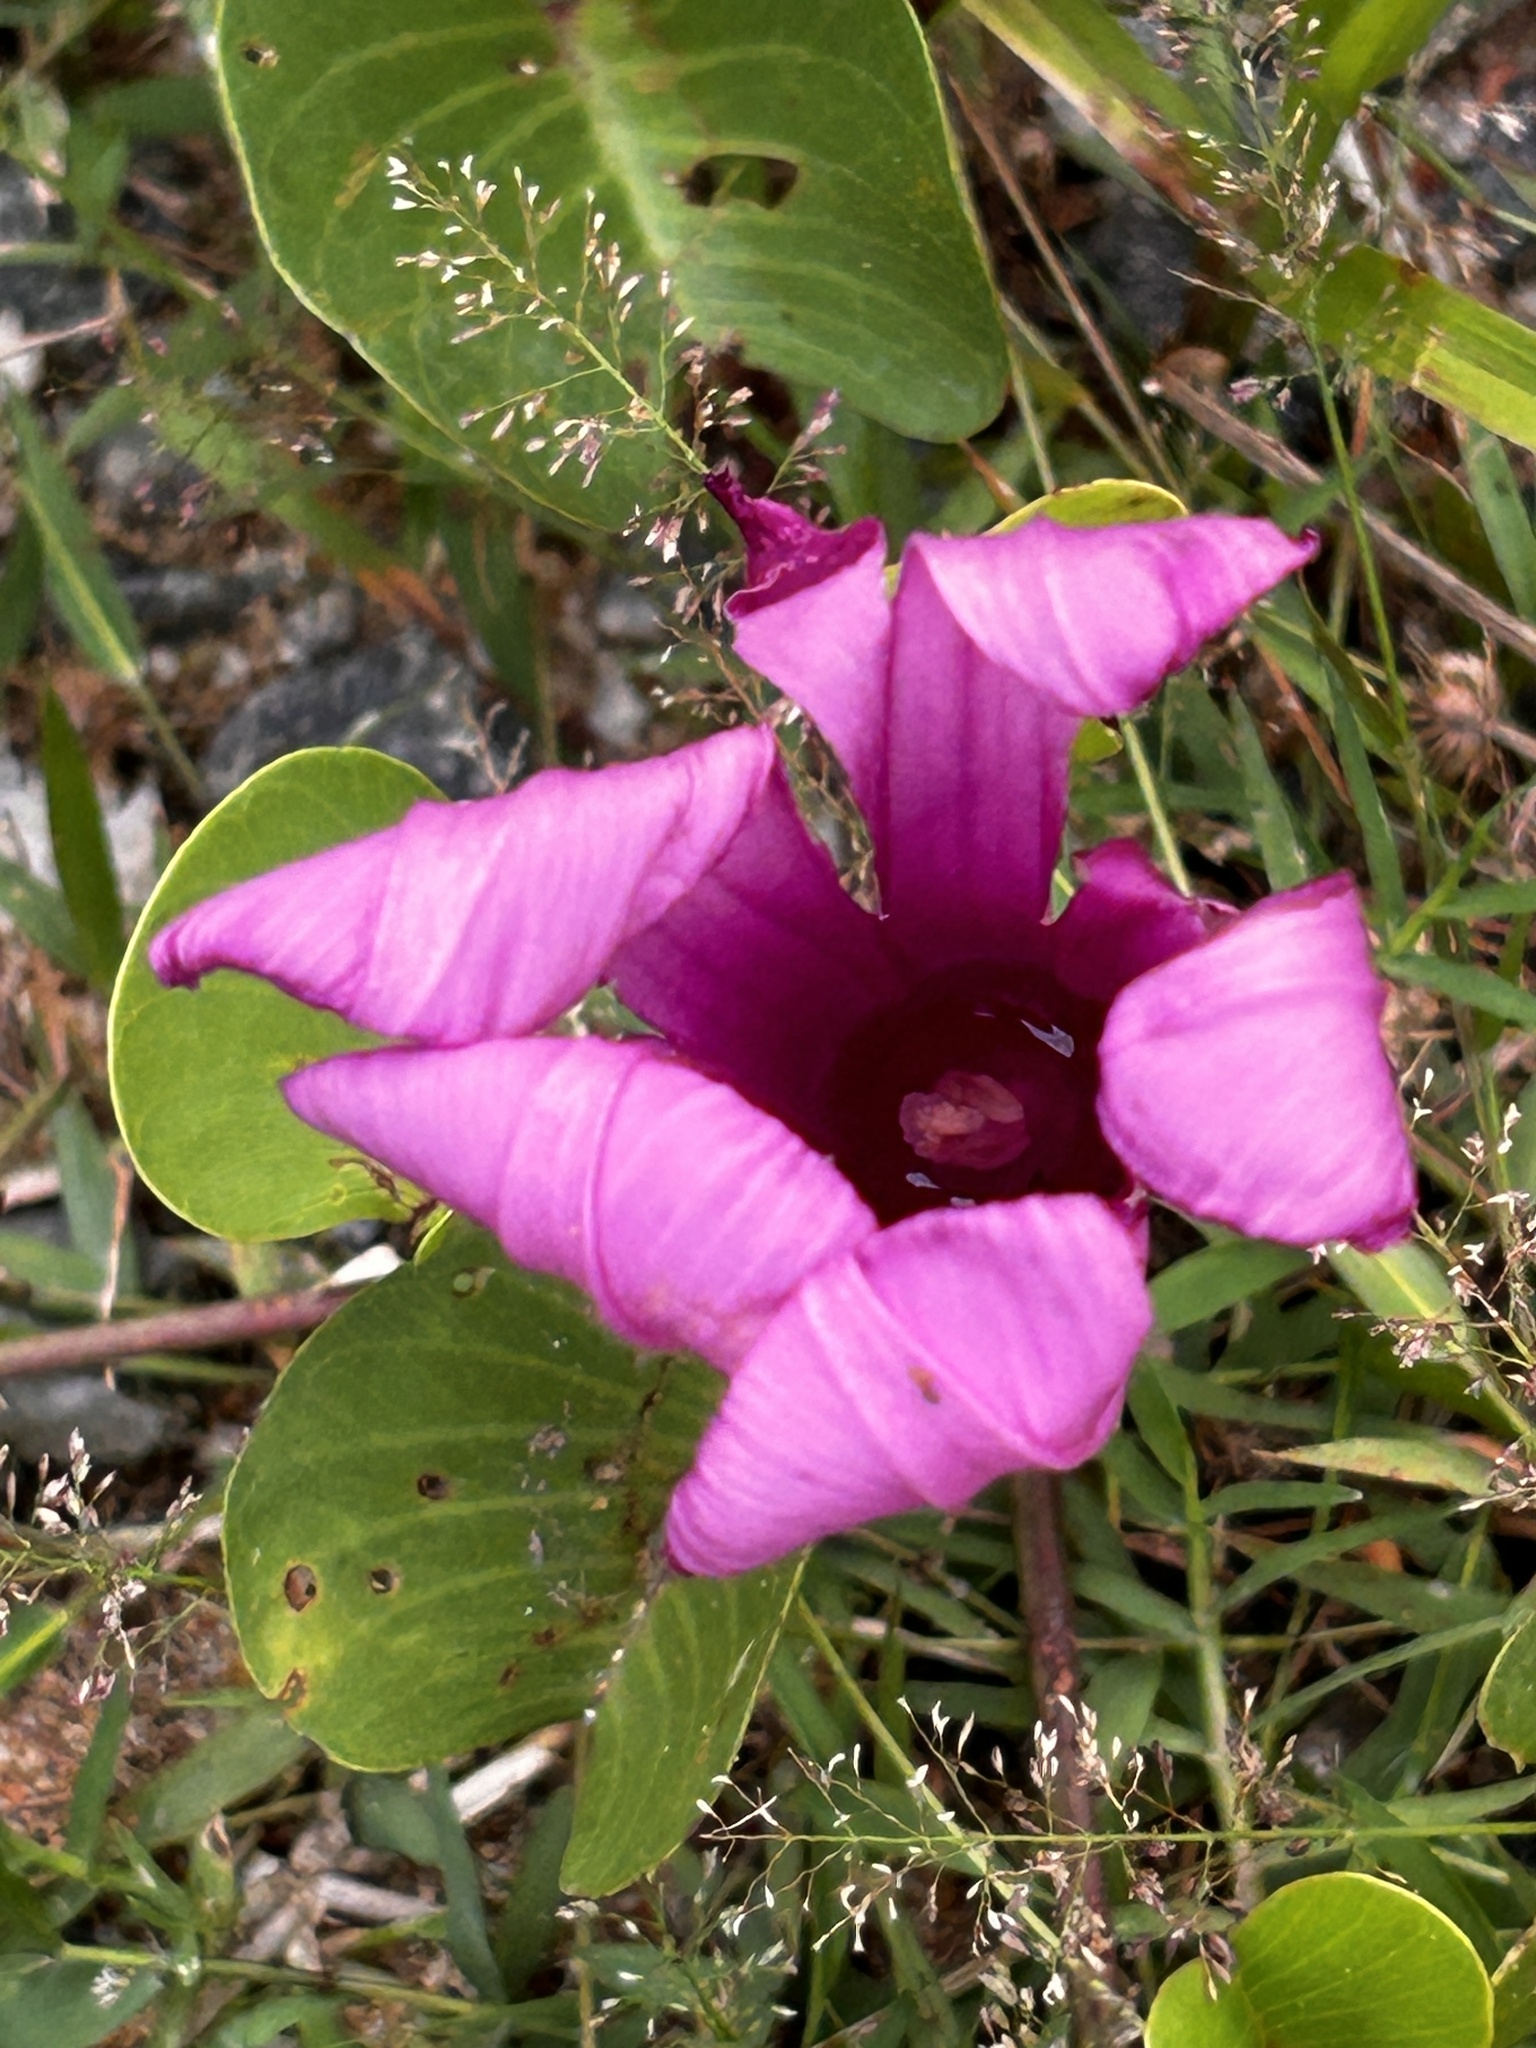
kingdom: Plantae
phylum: Tracheophyta
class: Magnoliopsida
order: Solanales
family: Convolvulaceae
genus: Ipomoea
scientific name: Ipomoea pes-caprae
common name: Beach morning glory
